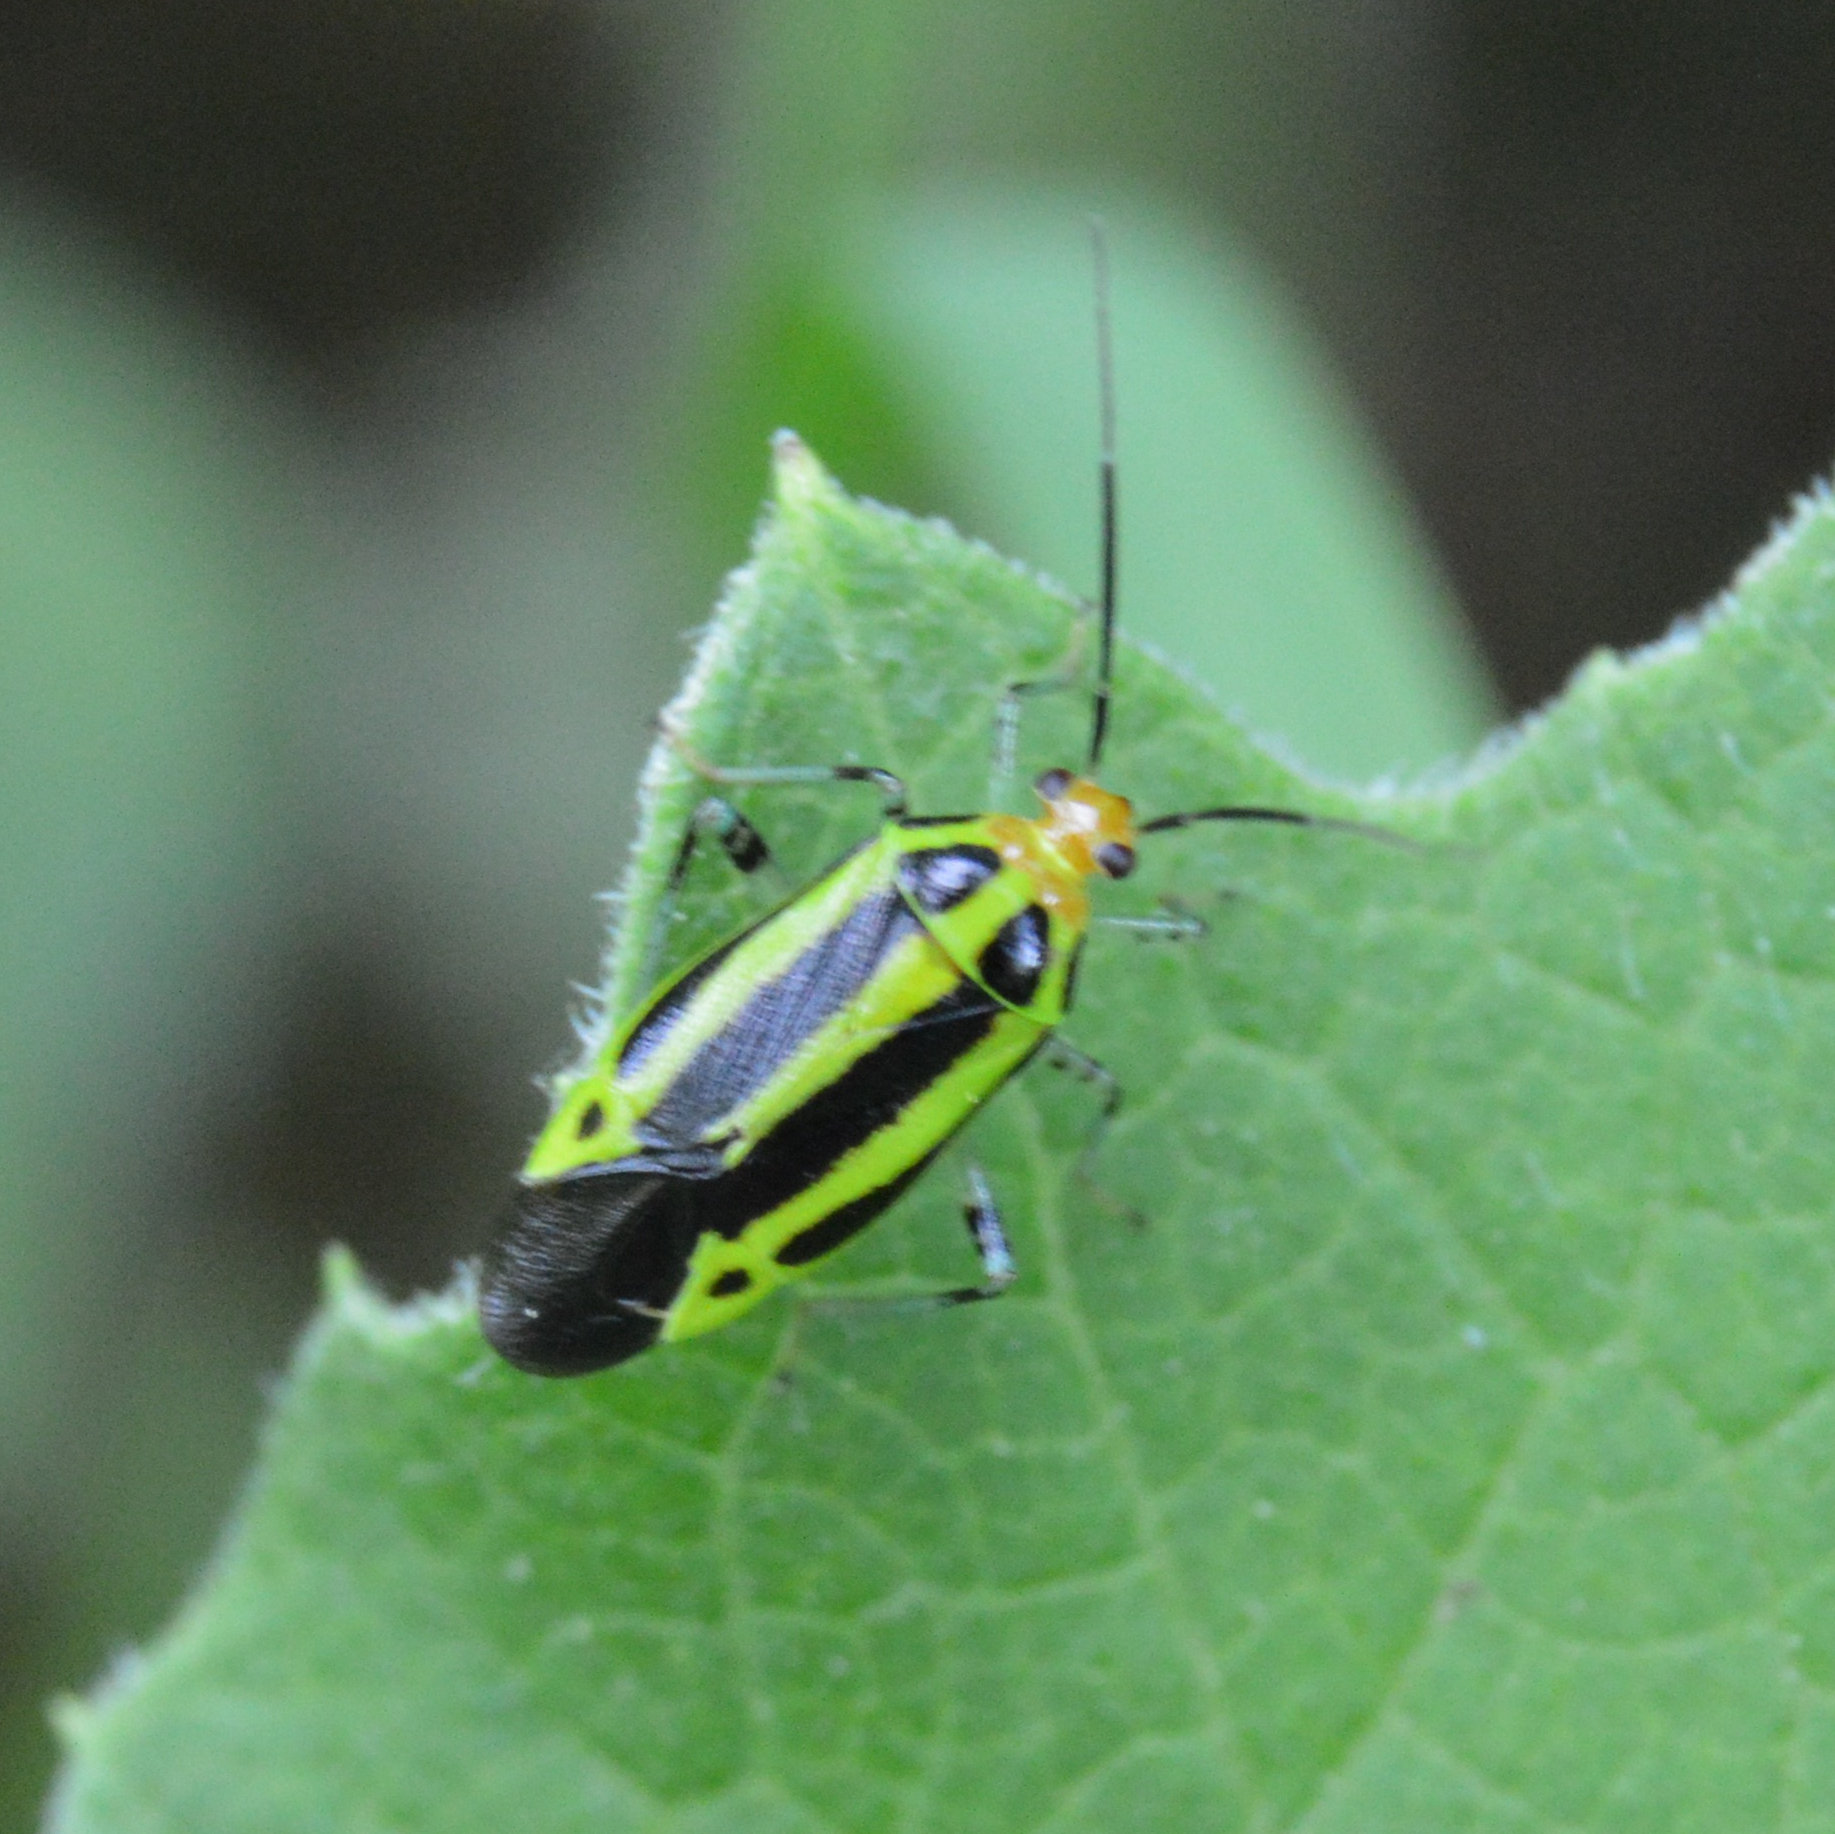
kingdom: Animalia
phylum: Arthropoda
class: Insecta
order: Hemiptera
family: Miridae
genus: Poecilocapsus
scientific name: Poecilocapsus lineatus
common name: Four-lined plant bug
